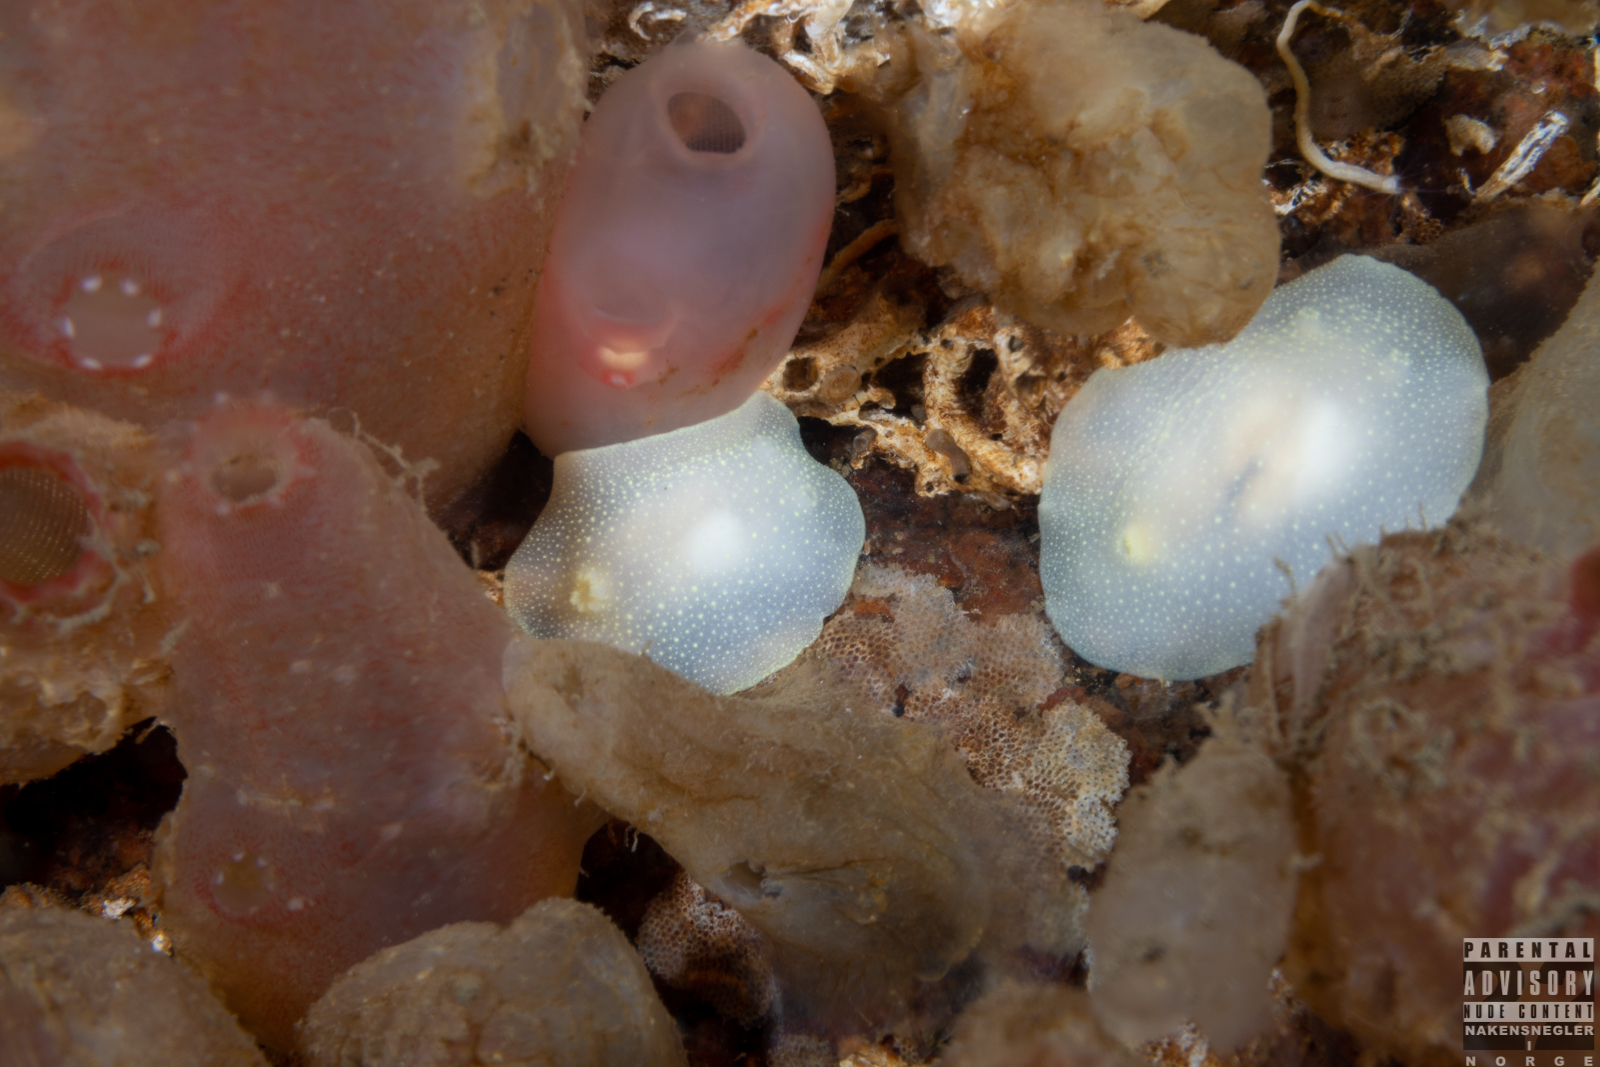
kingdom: Animalia
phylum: Mollusca
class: Gastropoda
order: Nudibranchia
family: Cadlinidae
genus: Cadlina
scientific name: Cadlina laevis
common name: White atlantic cadlina
